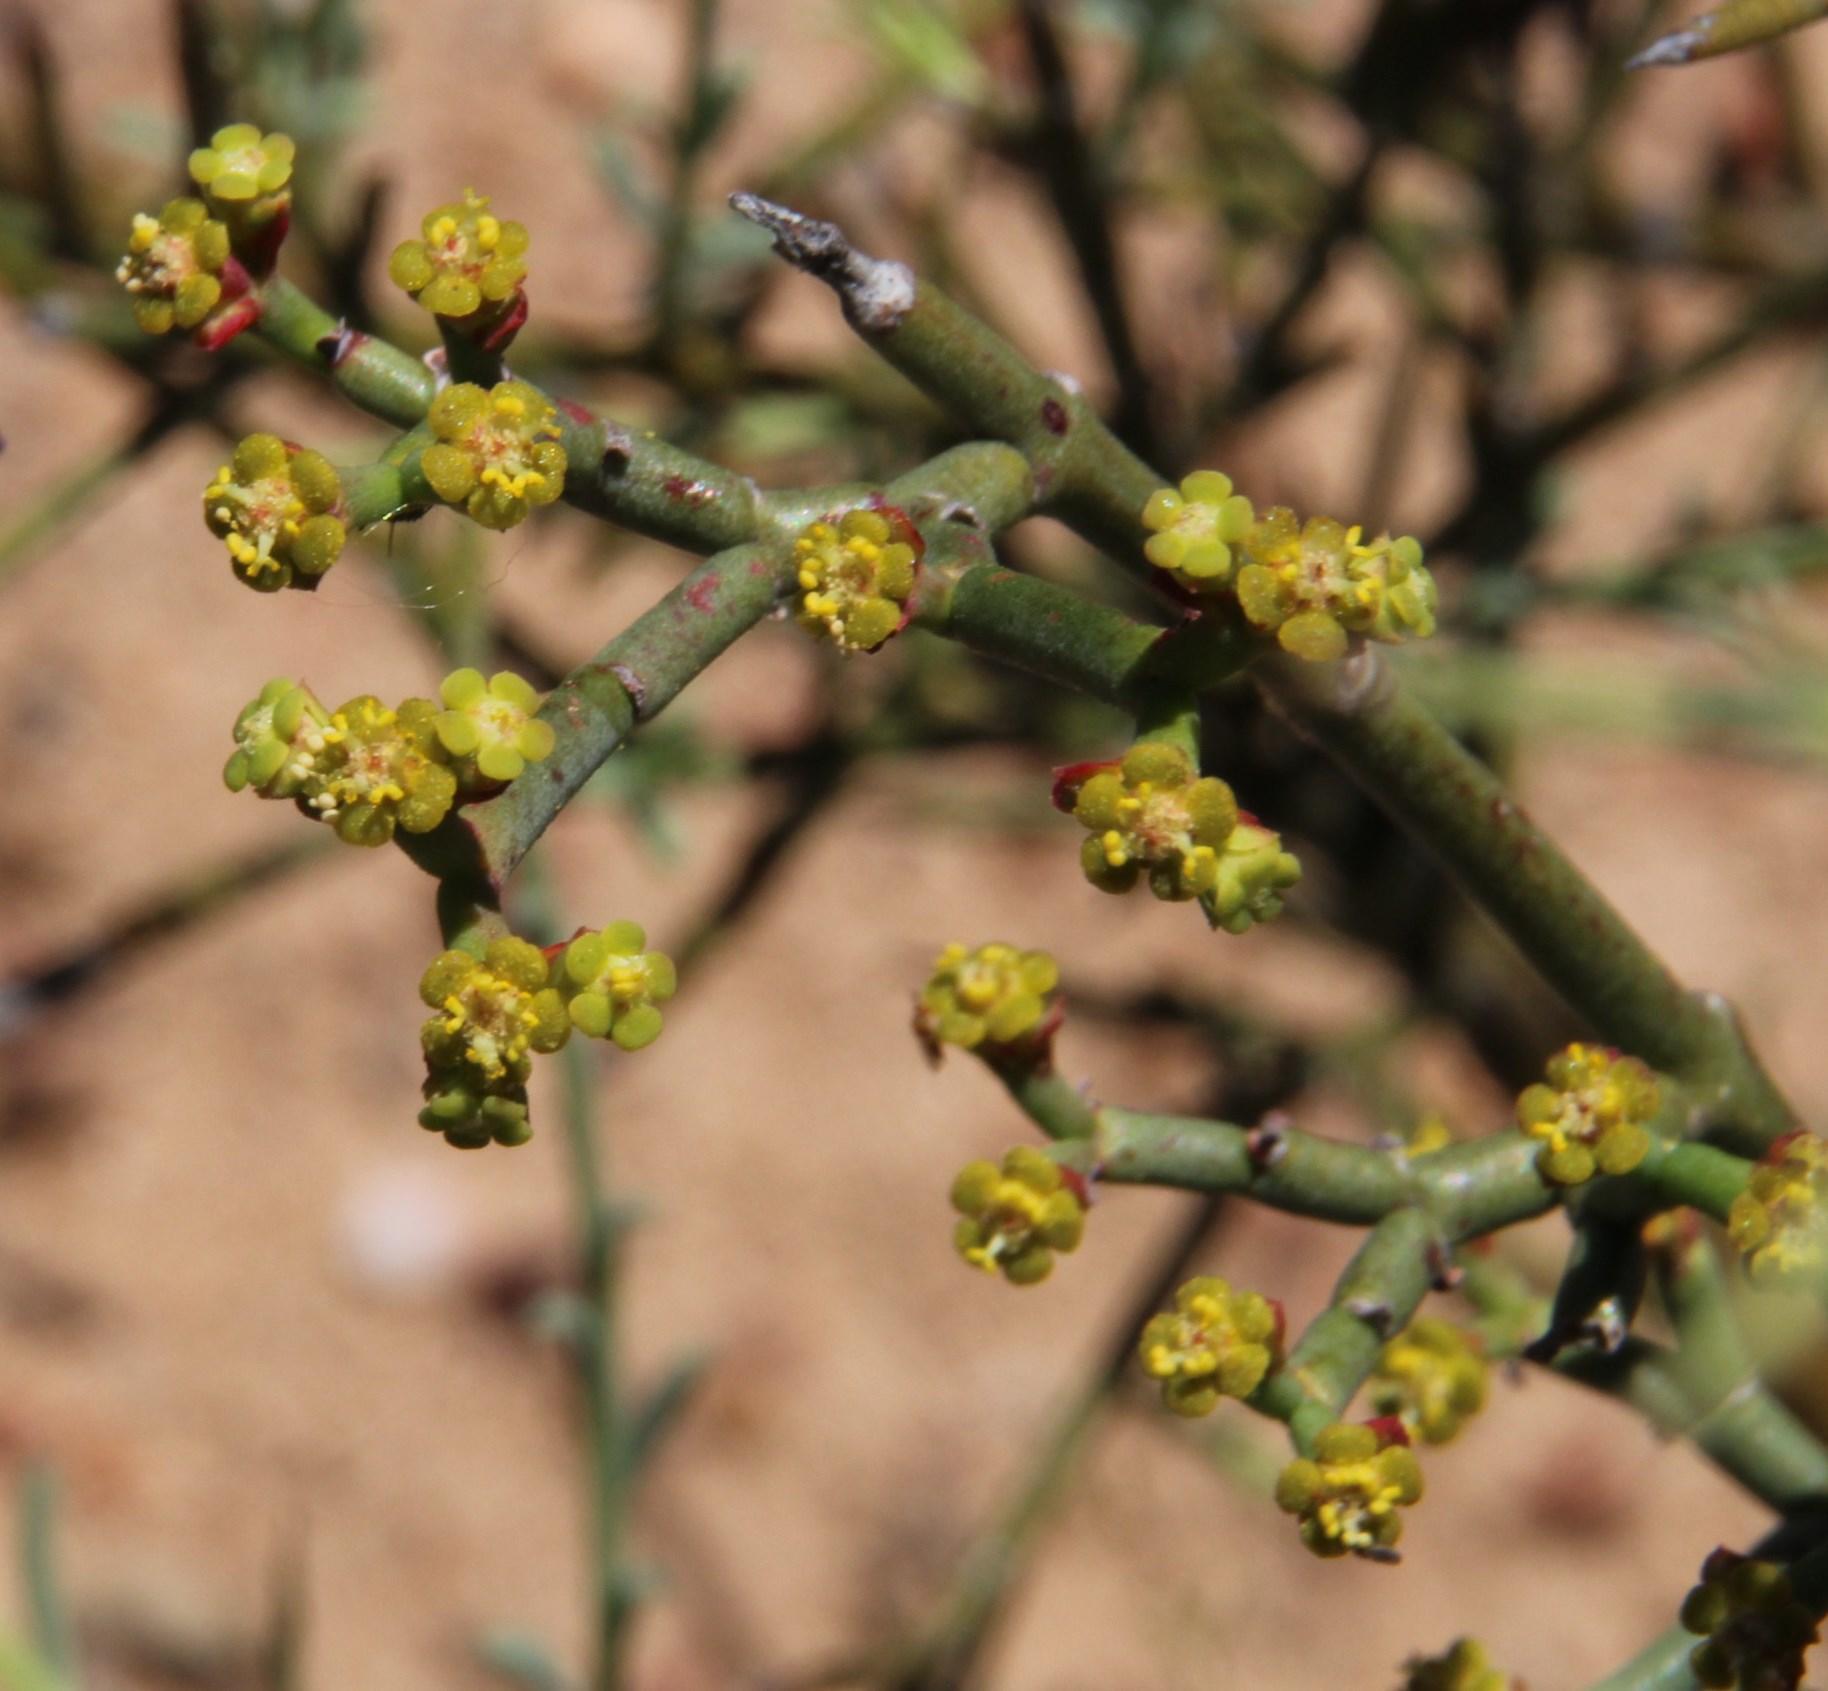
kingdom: Plantae
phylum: Tracheophyta
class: Magnoliopsida
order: Malpighiales
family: Euphorbiaceae
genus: Euphorbia
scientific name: Euphorbia tenax
